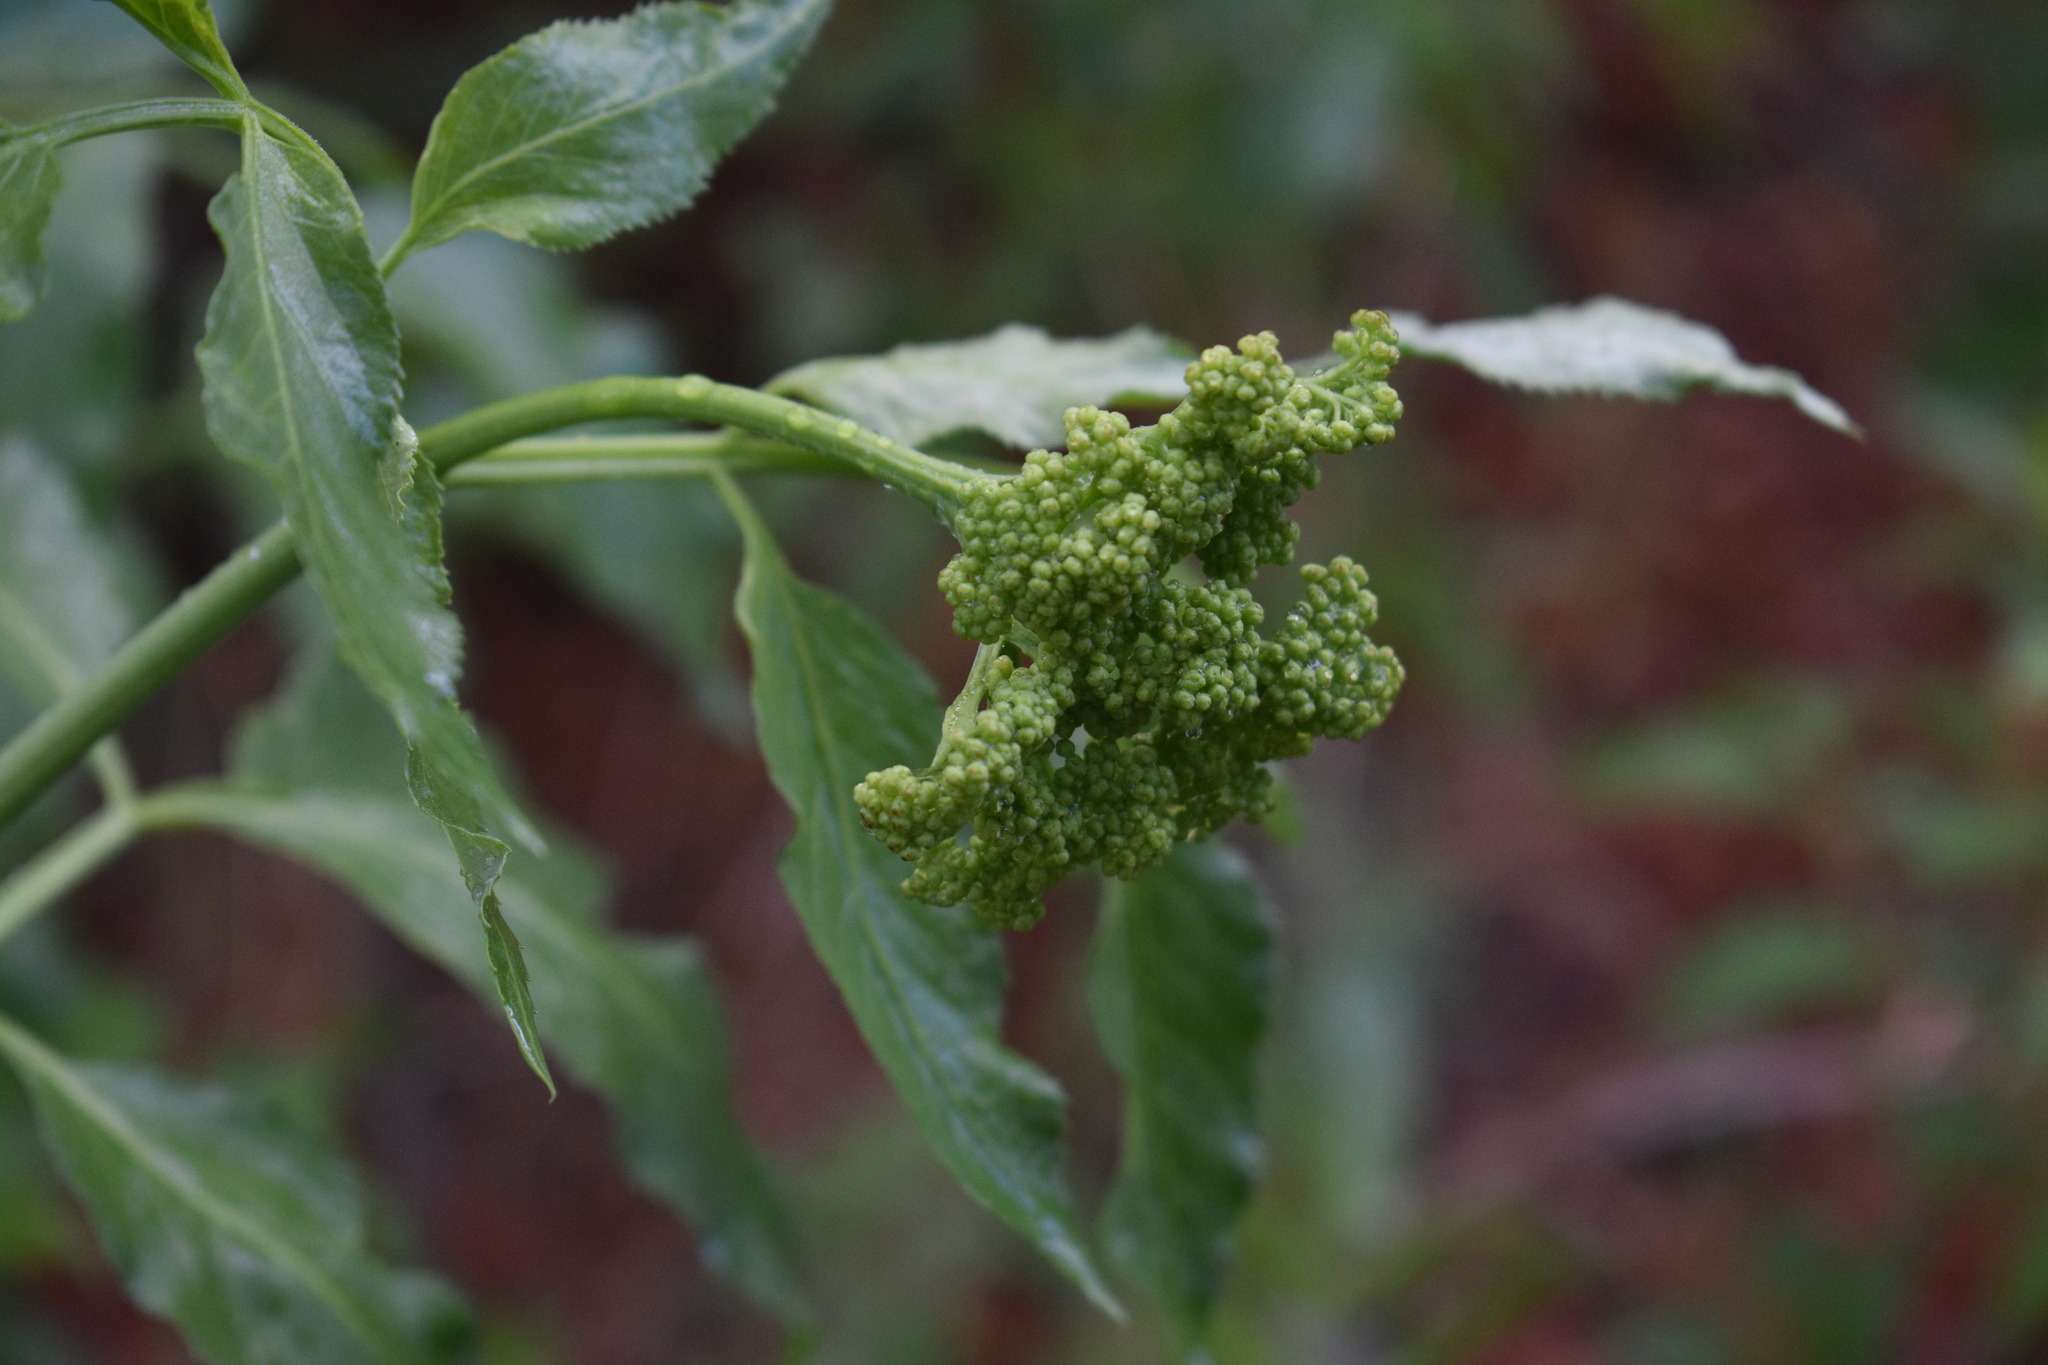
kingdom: Plantae
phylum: Tracheophyta
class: Magnoliopsida
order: Dipsacales
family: Viburnaceae
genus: Sambucus
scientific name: Sambucus cerulea
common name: Blue elder
